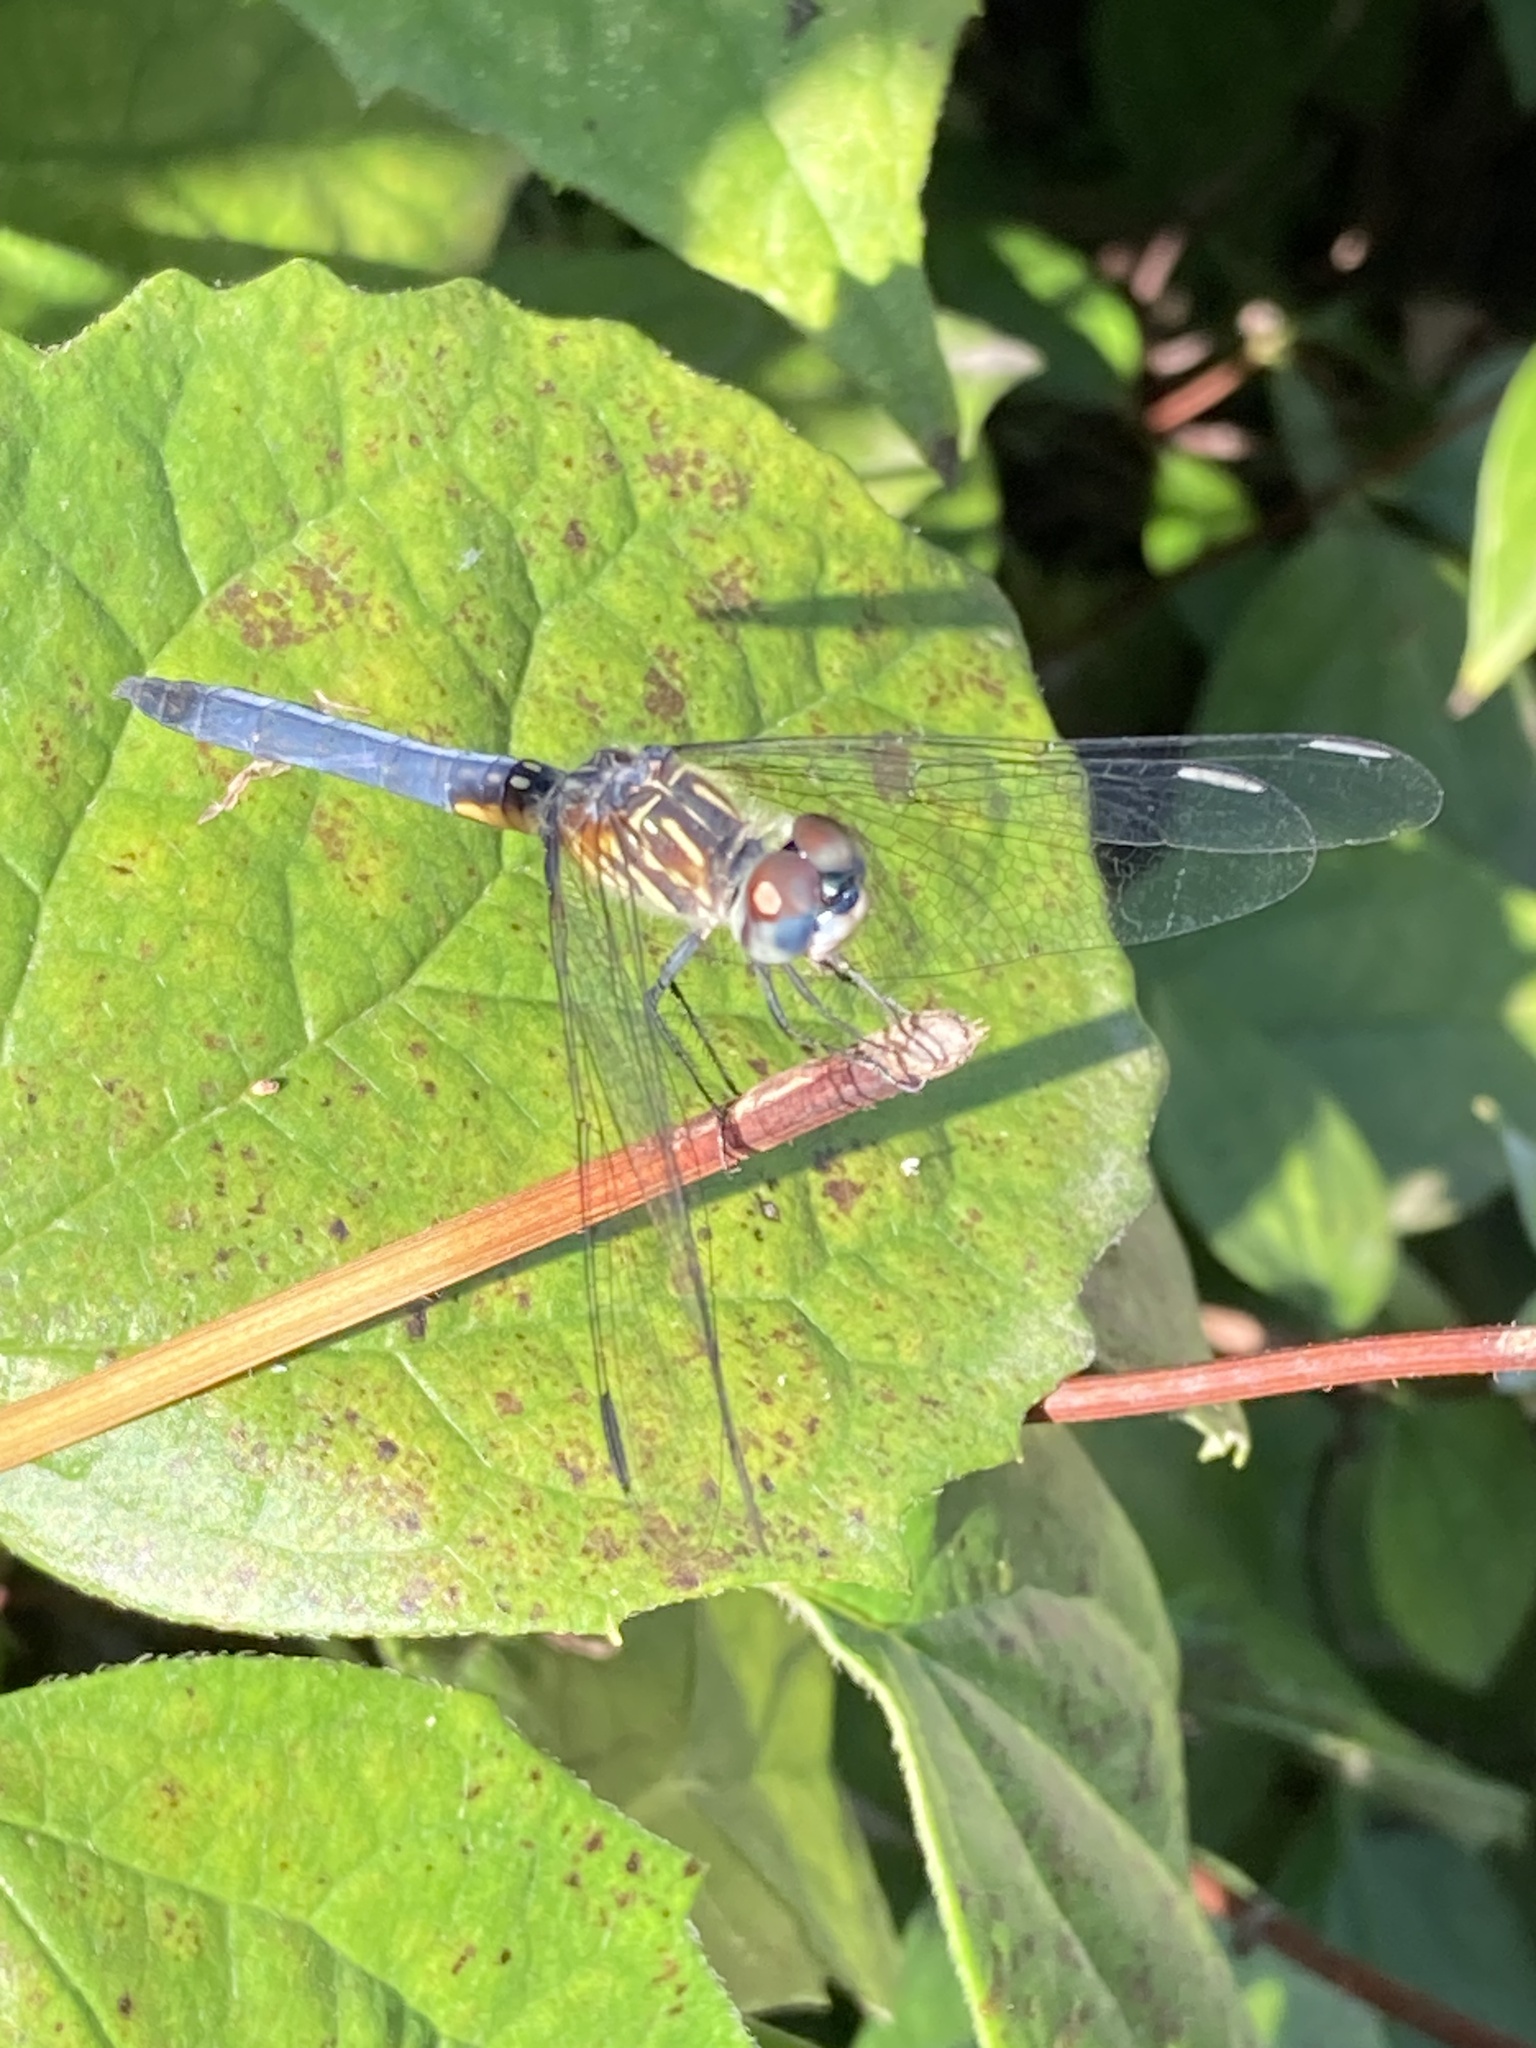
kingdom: Animalia
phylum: Arthropoda
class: Insecta
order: Odonata
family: Libellulidae
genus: Pachydiplax
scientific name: Pachydiplax longipennis
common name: Blue dasher
